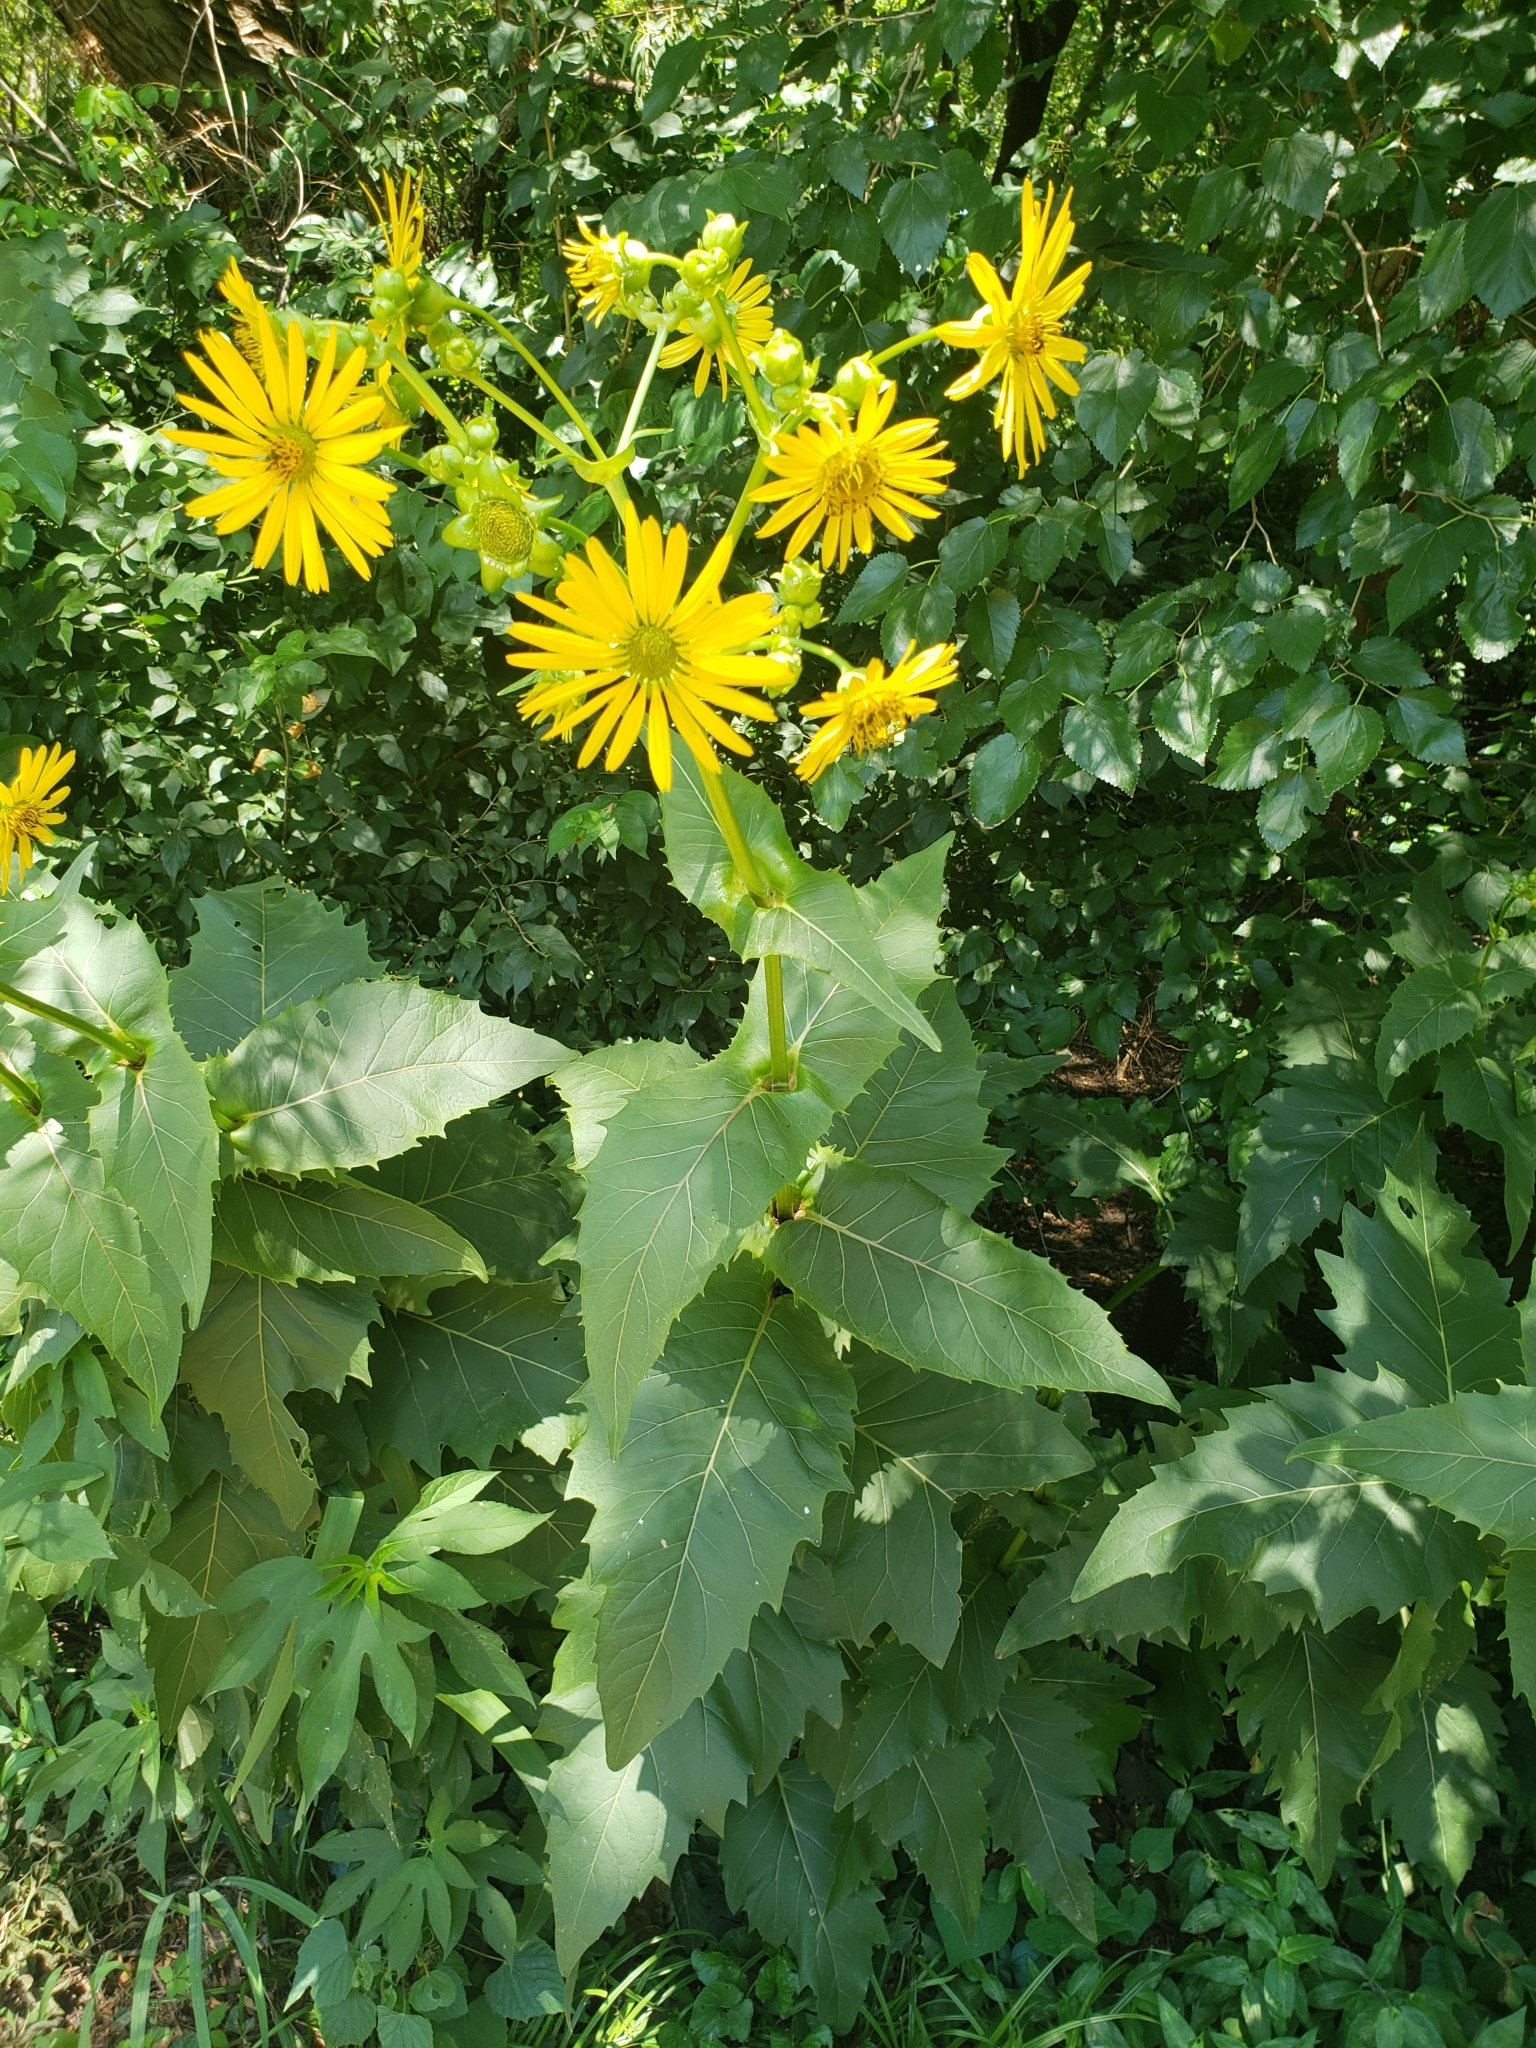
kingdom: Plantae
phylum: Tracheophyta
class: Magnoliopsida
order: Asterales
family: Asteraceae
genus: Silphium
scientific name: Silphium perfoliatum
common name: Cup-plant
